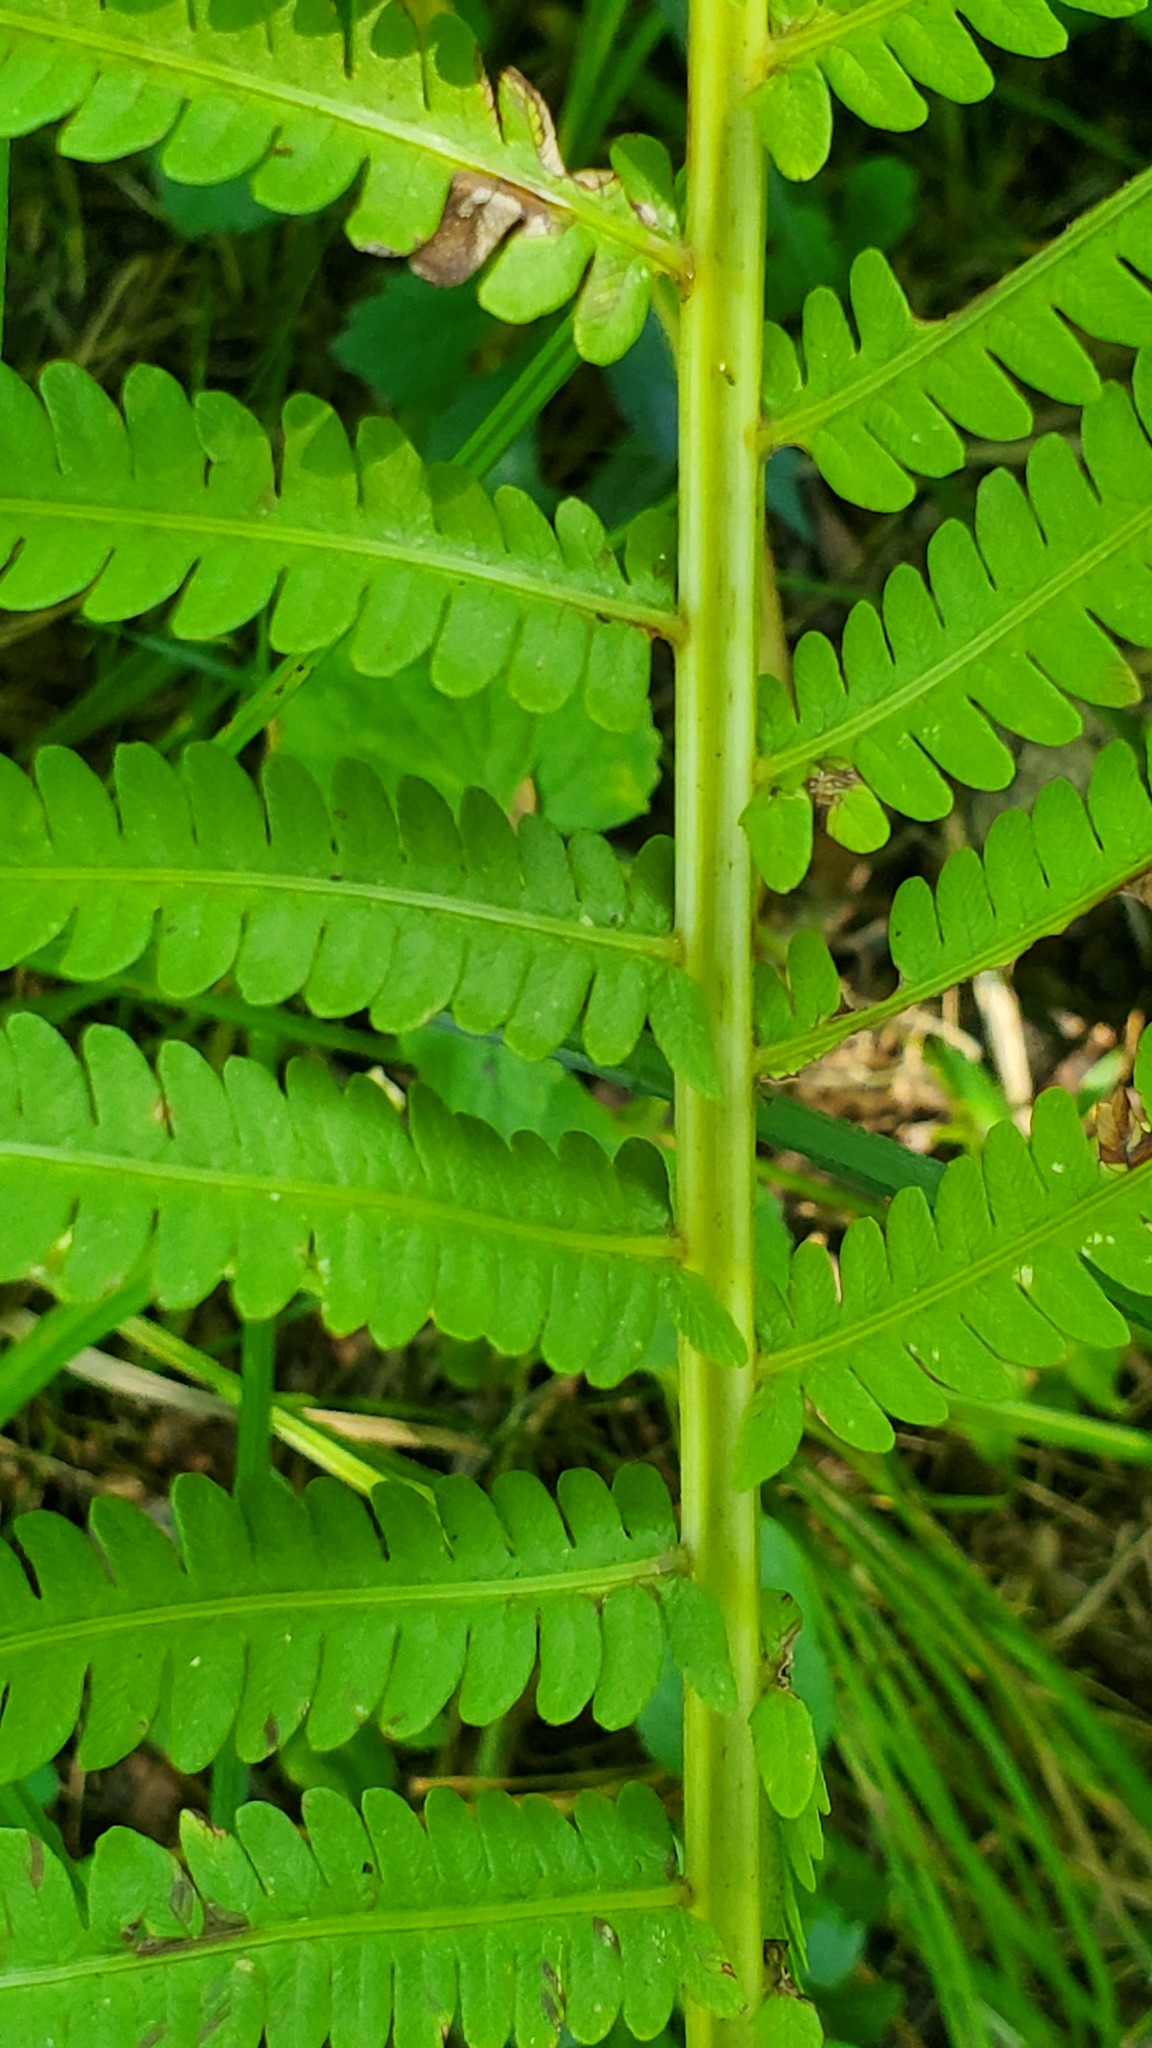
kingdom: Plantae
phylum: Tracheophyta
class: Polypodiopsida
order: Polypodiales
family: Onocleaceae
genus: Matteuccia
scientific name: Matteuccia struthiopteris
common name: Ostrich fern
